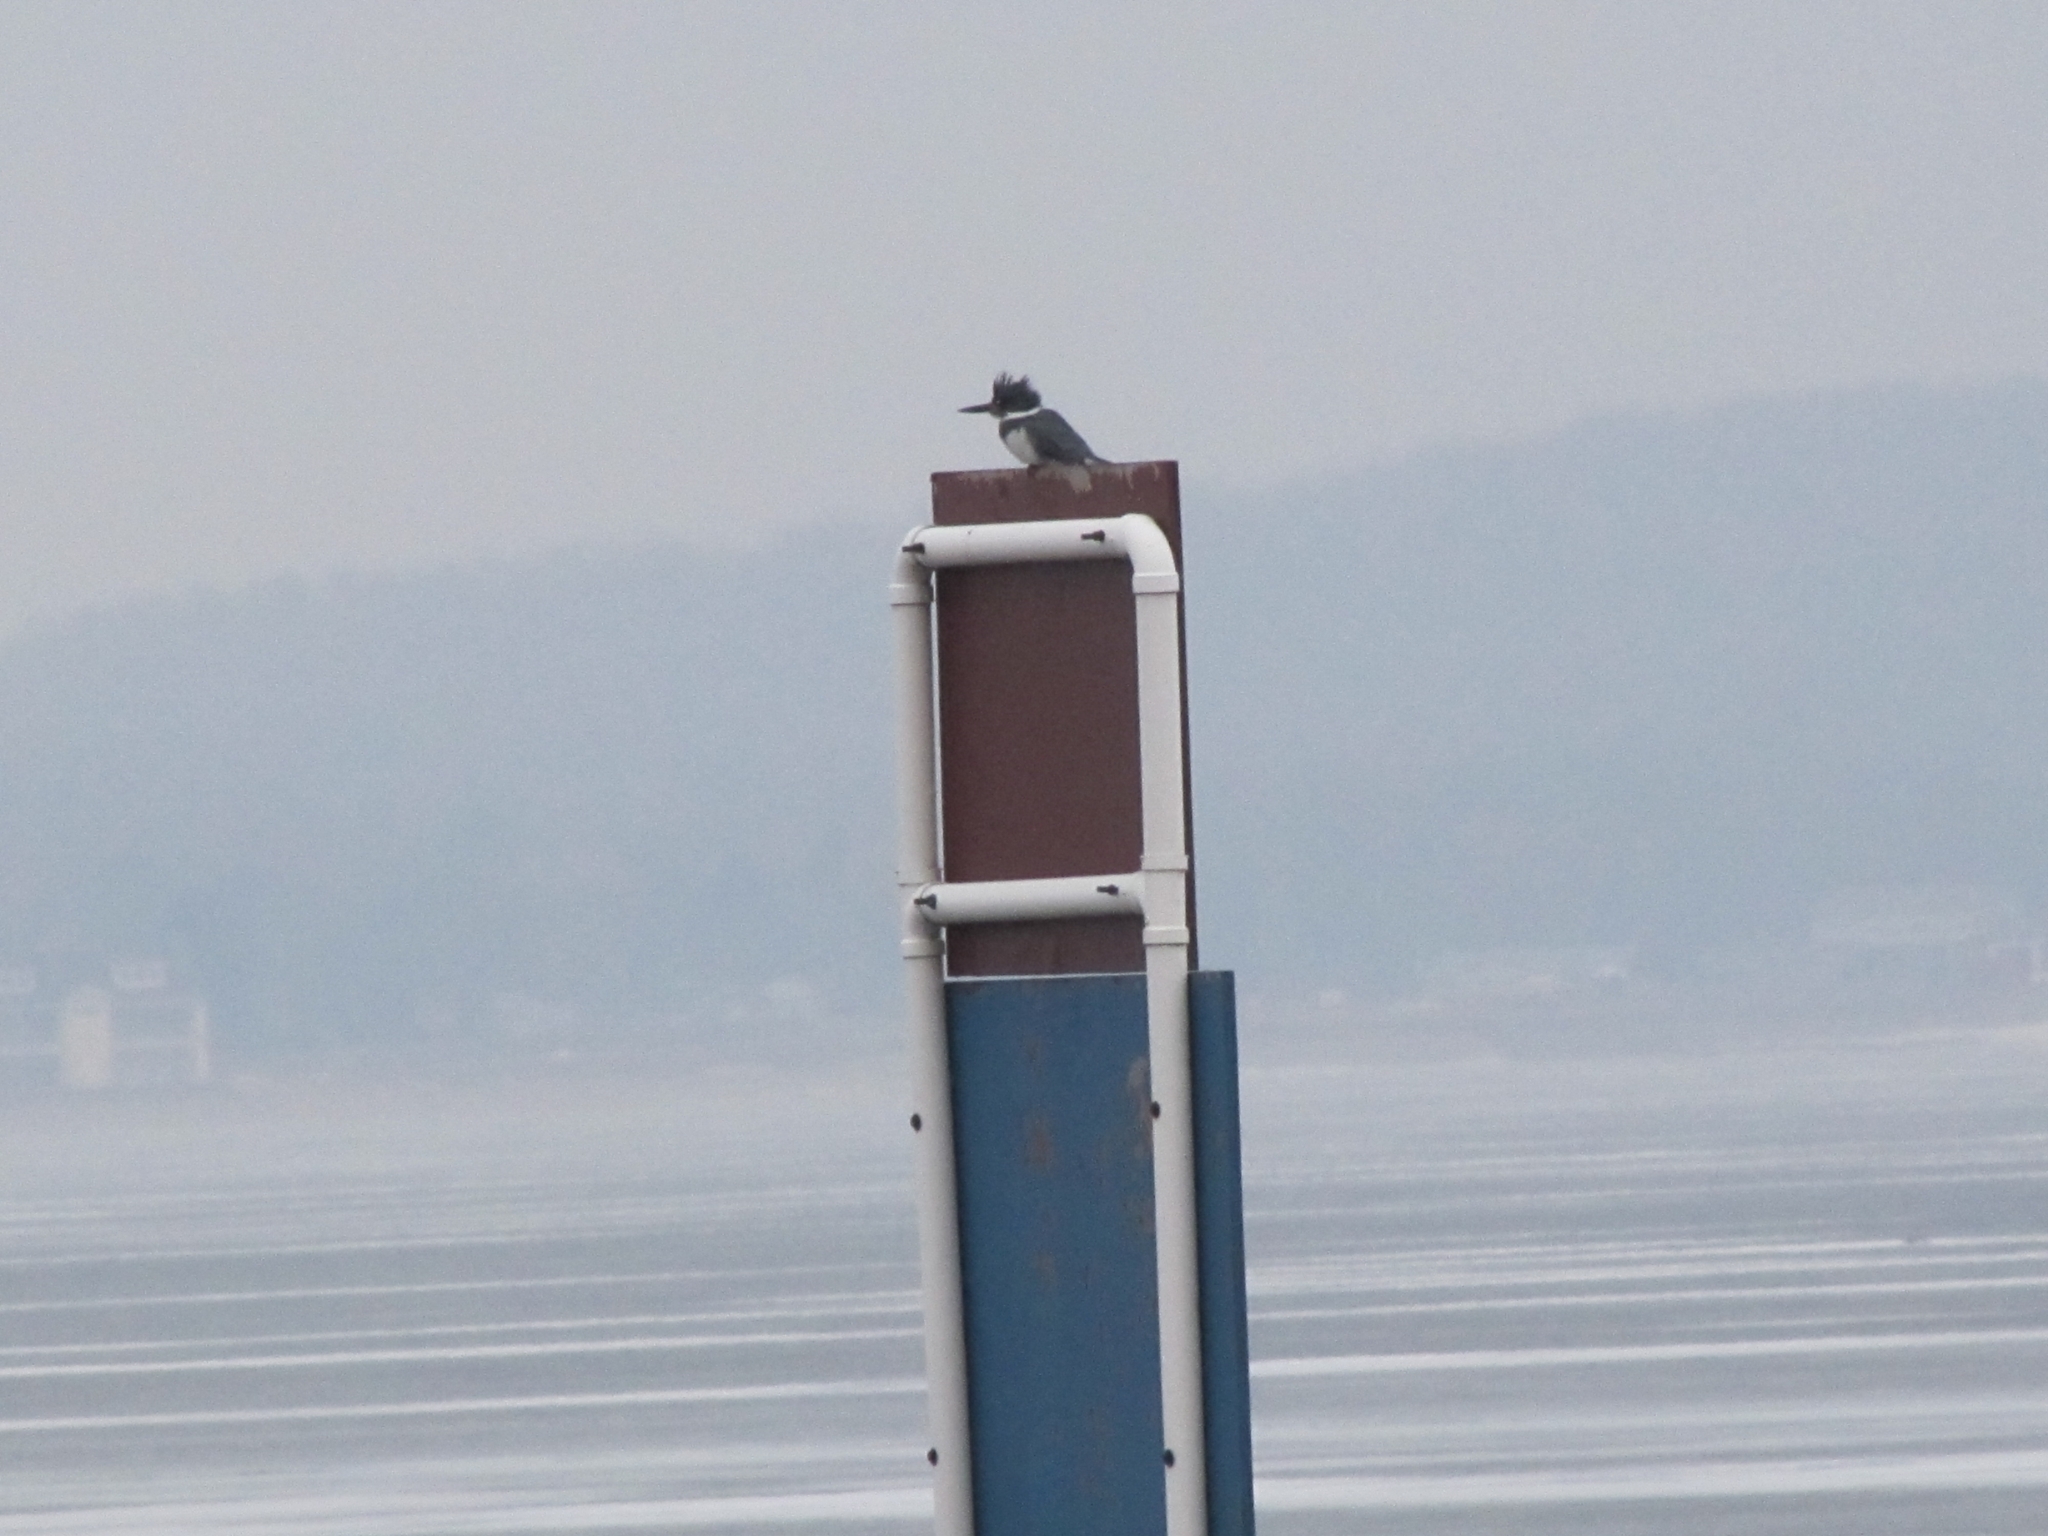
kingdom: Animalia
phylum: Chordata
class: Aves
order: Coraciiformes
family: Alcedinidae
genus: Megaceryle
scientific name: Megaceryle alcyon
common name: Belted kingfisher
